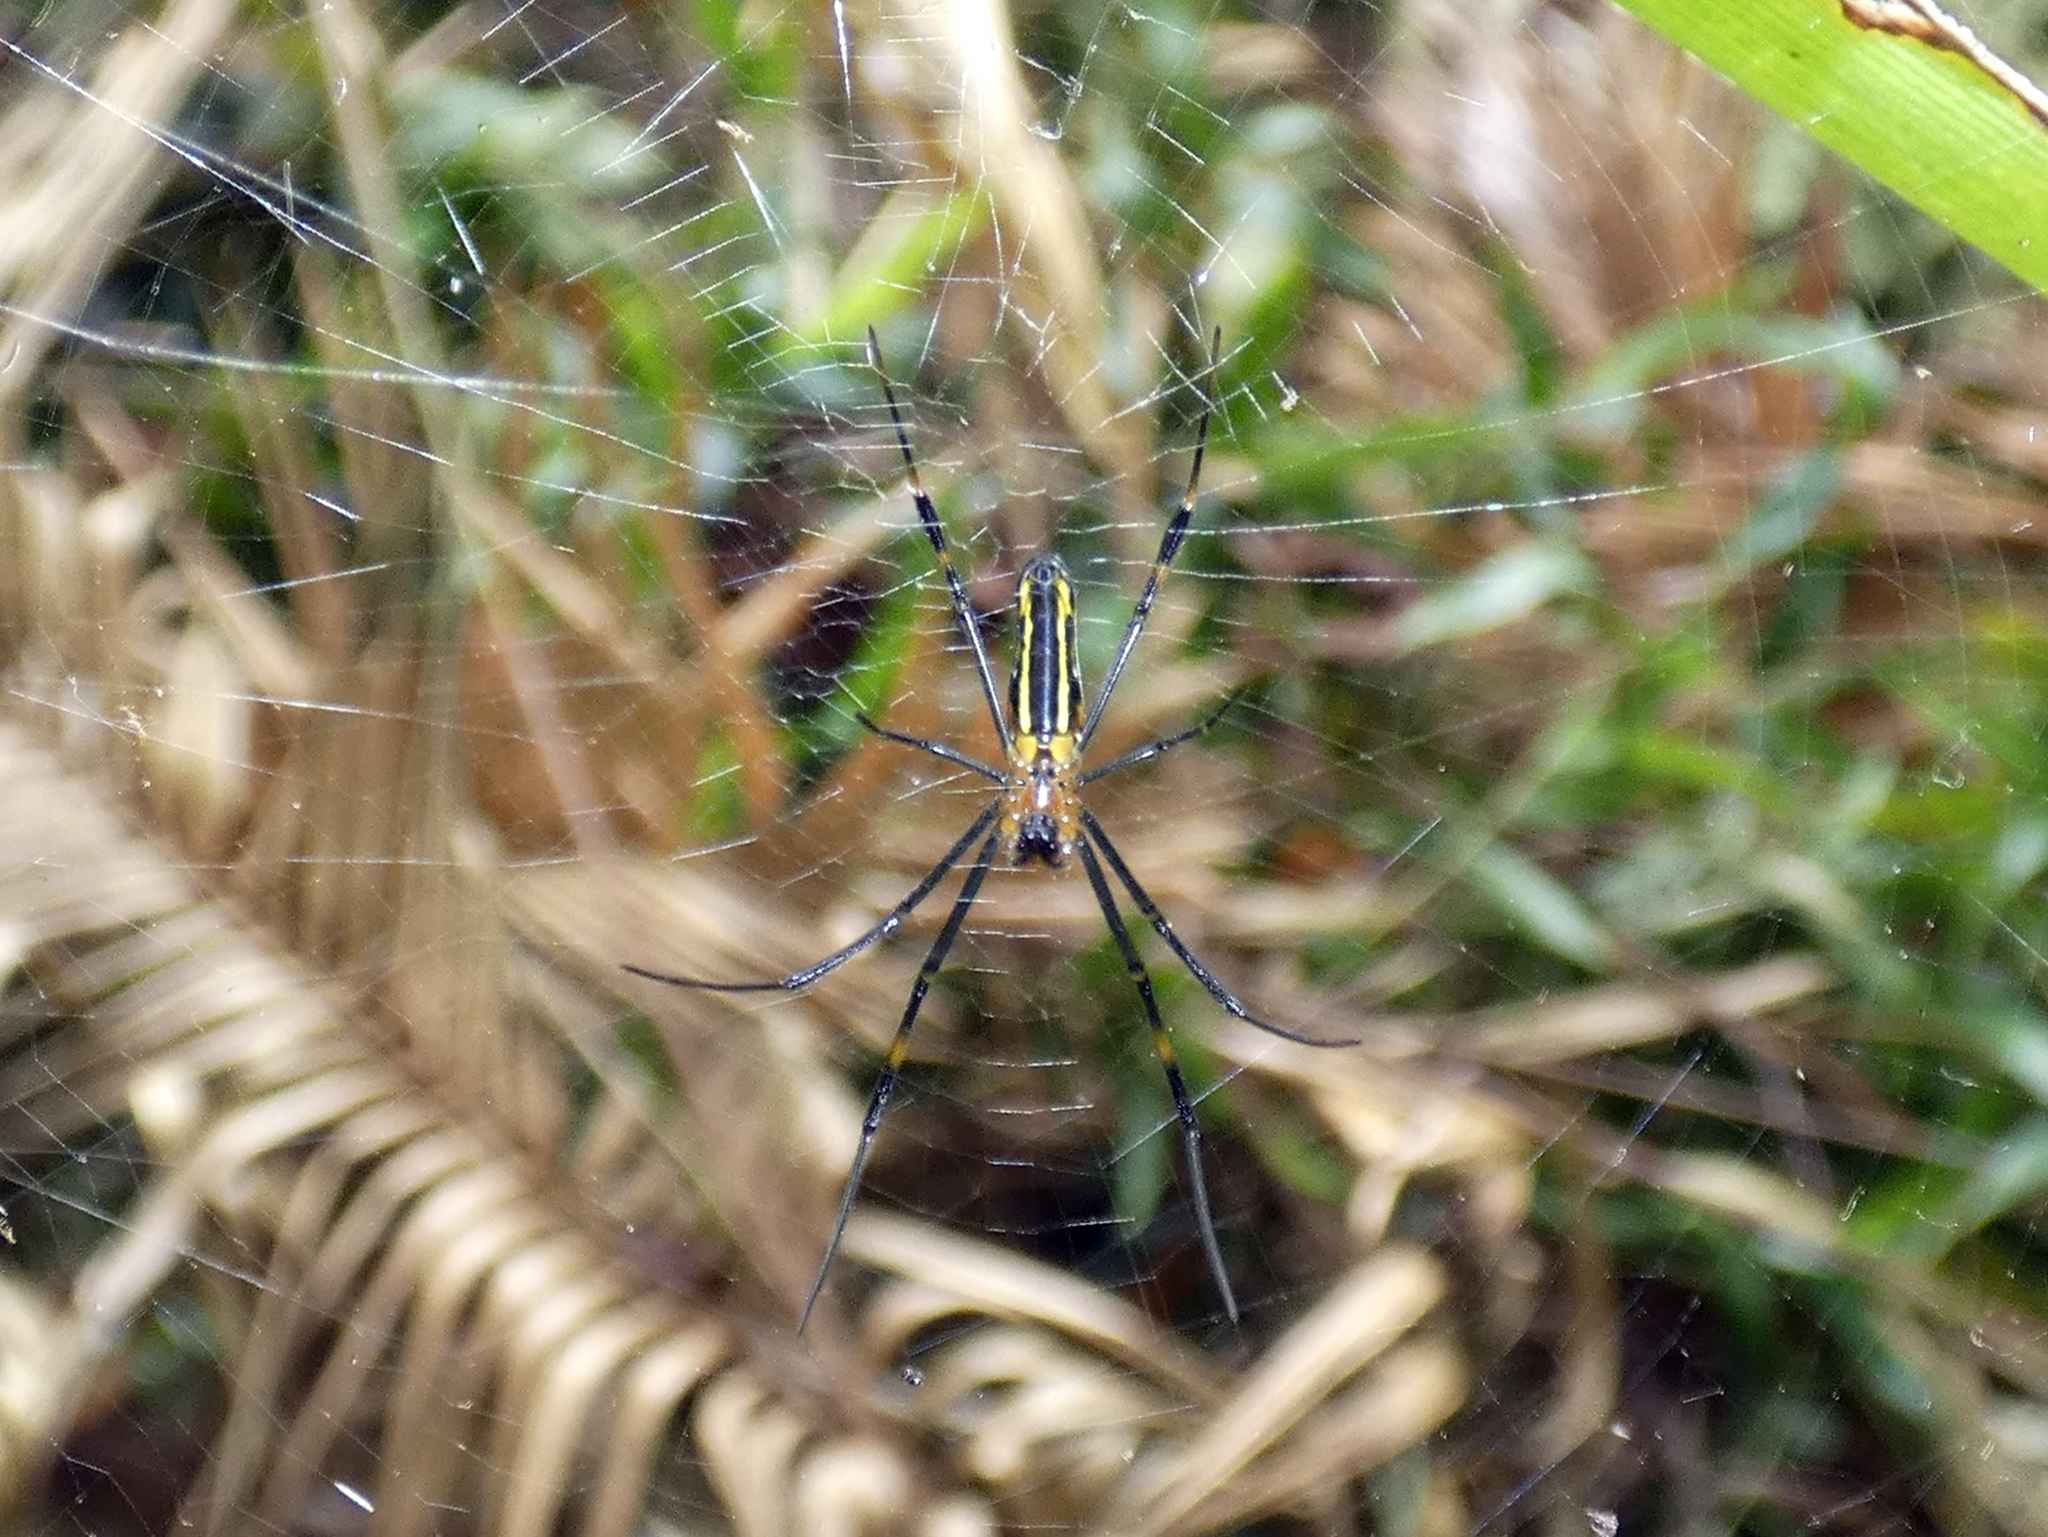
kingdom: Animalia
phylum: Arthropoda
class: Arachnida
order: Araneae
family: Araneidae
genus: Nephila
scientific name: Nephila pilipes
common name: Giant golden orb weaver
